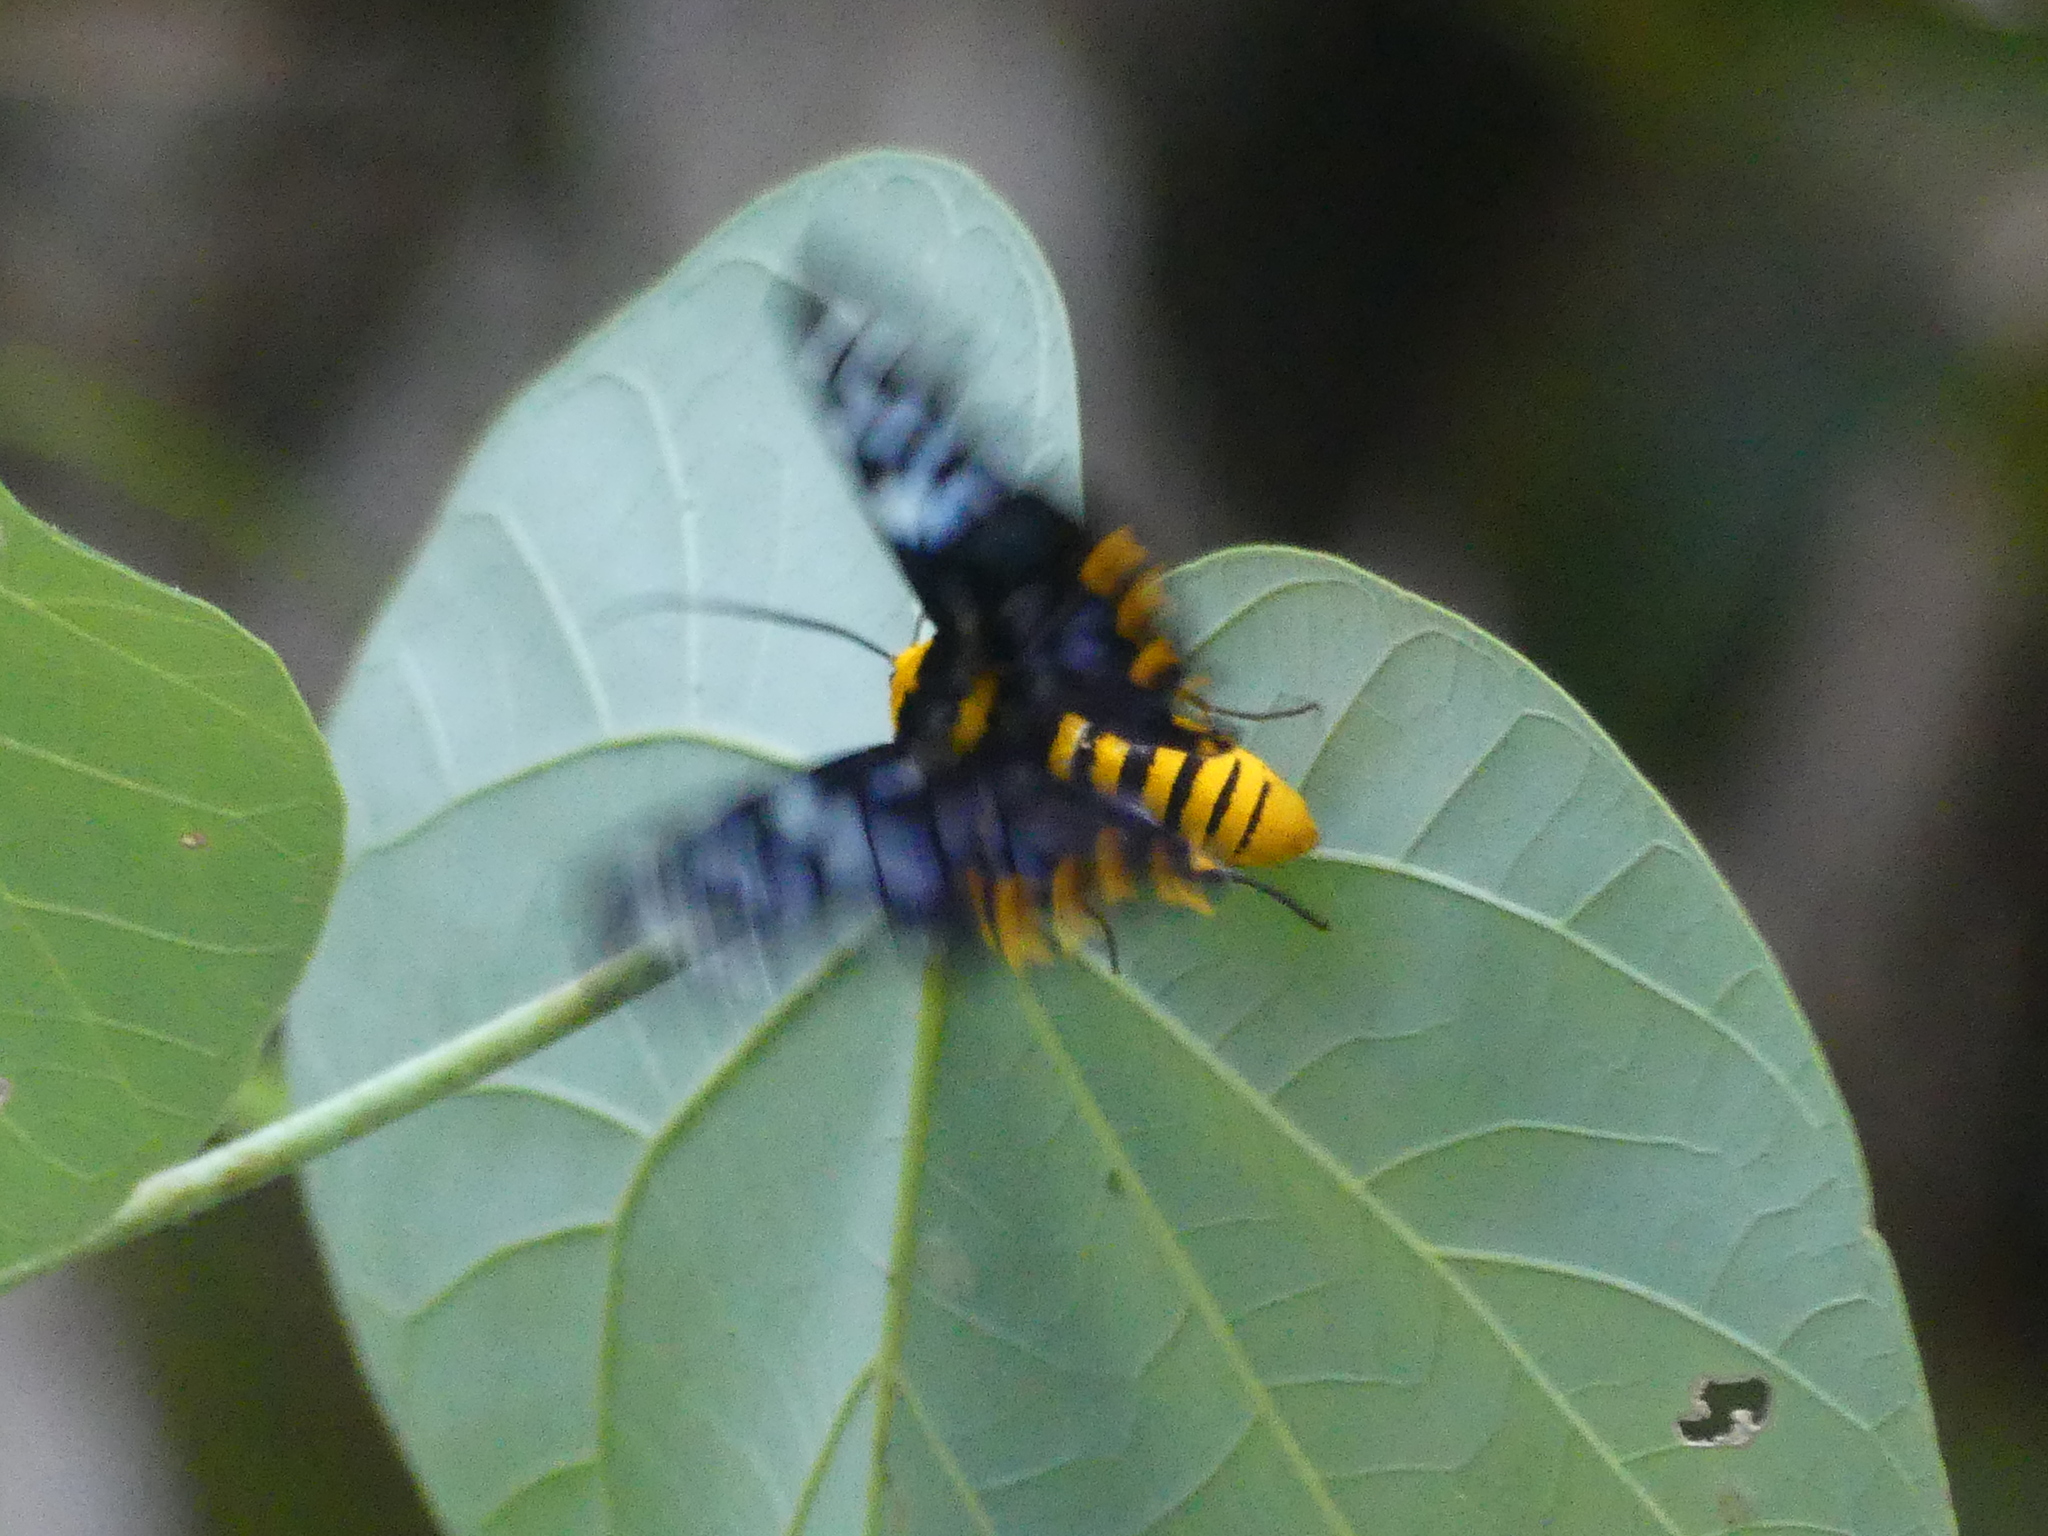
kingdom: Animalia
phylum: Arthropoda
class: Insecta
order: Lepidoptera
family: Geometridae
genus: Dysphania
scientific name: Dysphania numana
